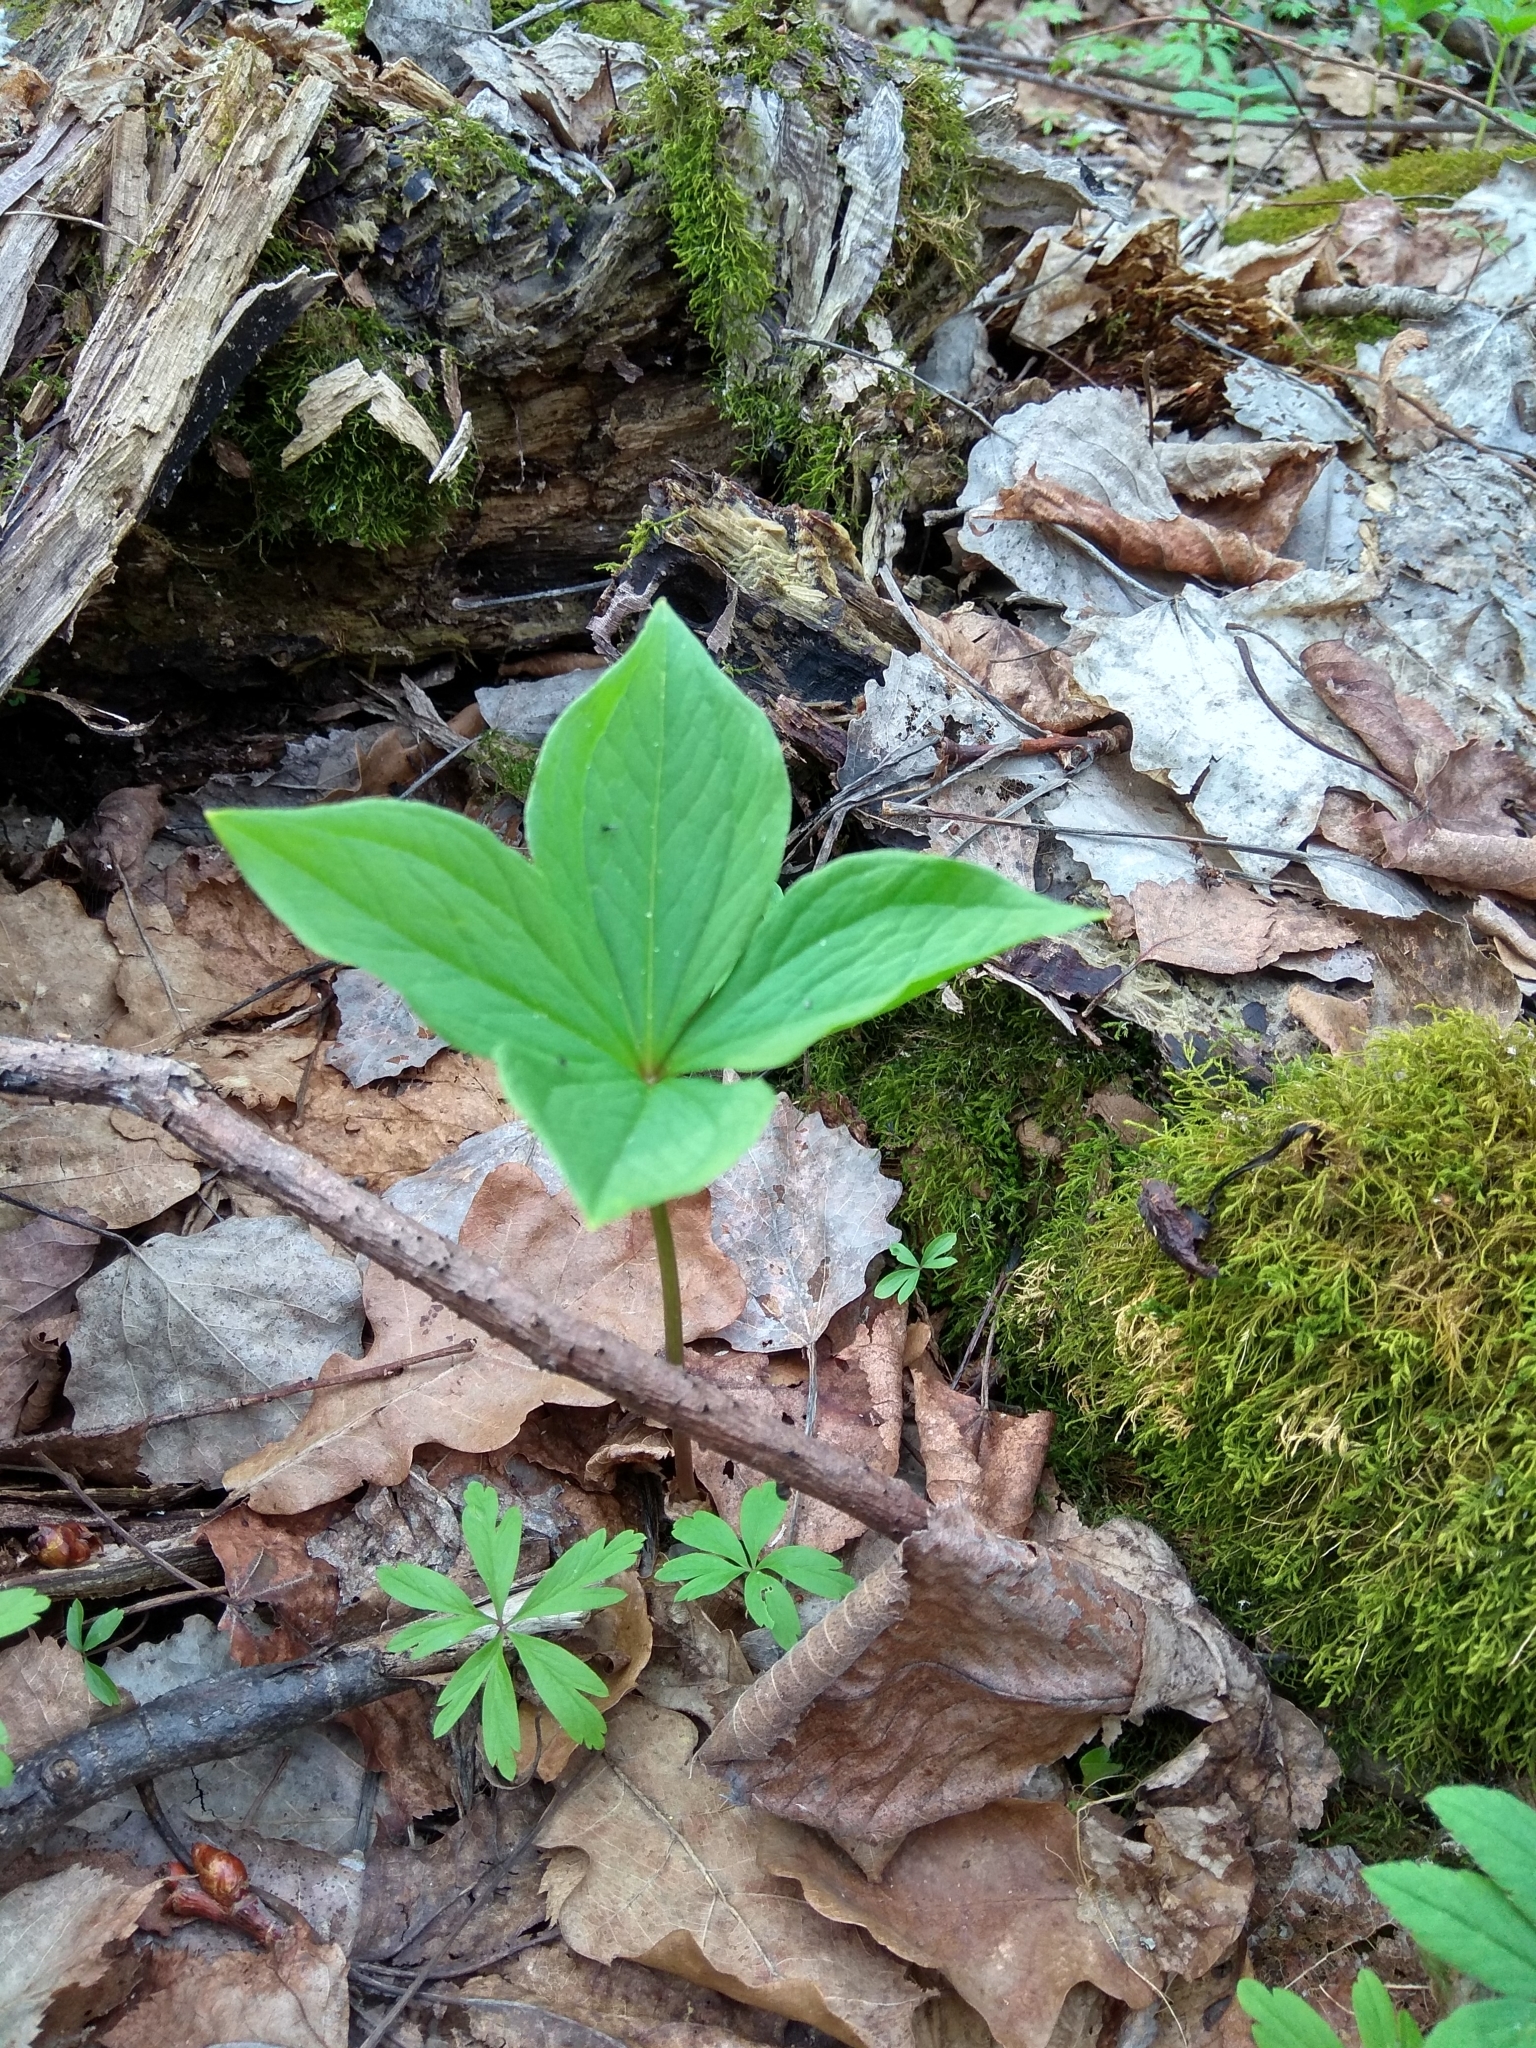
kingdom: Plantae
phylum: Tracheophyta
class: Liliopsida
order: Liliales
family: Melanthiaceae
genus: Paris
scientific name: Paris quadrifolia
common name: Herb-paris
